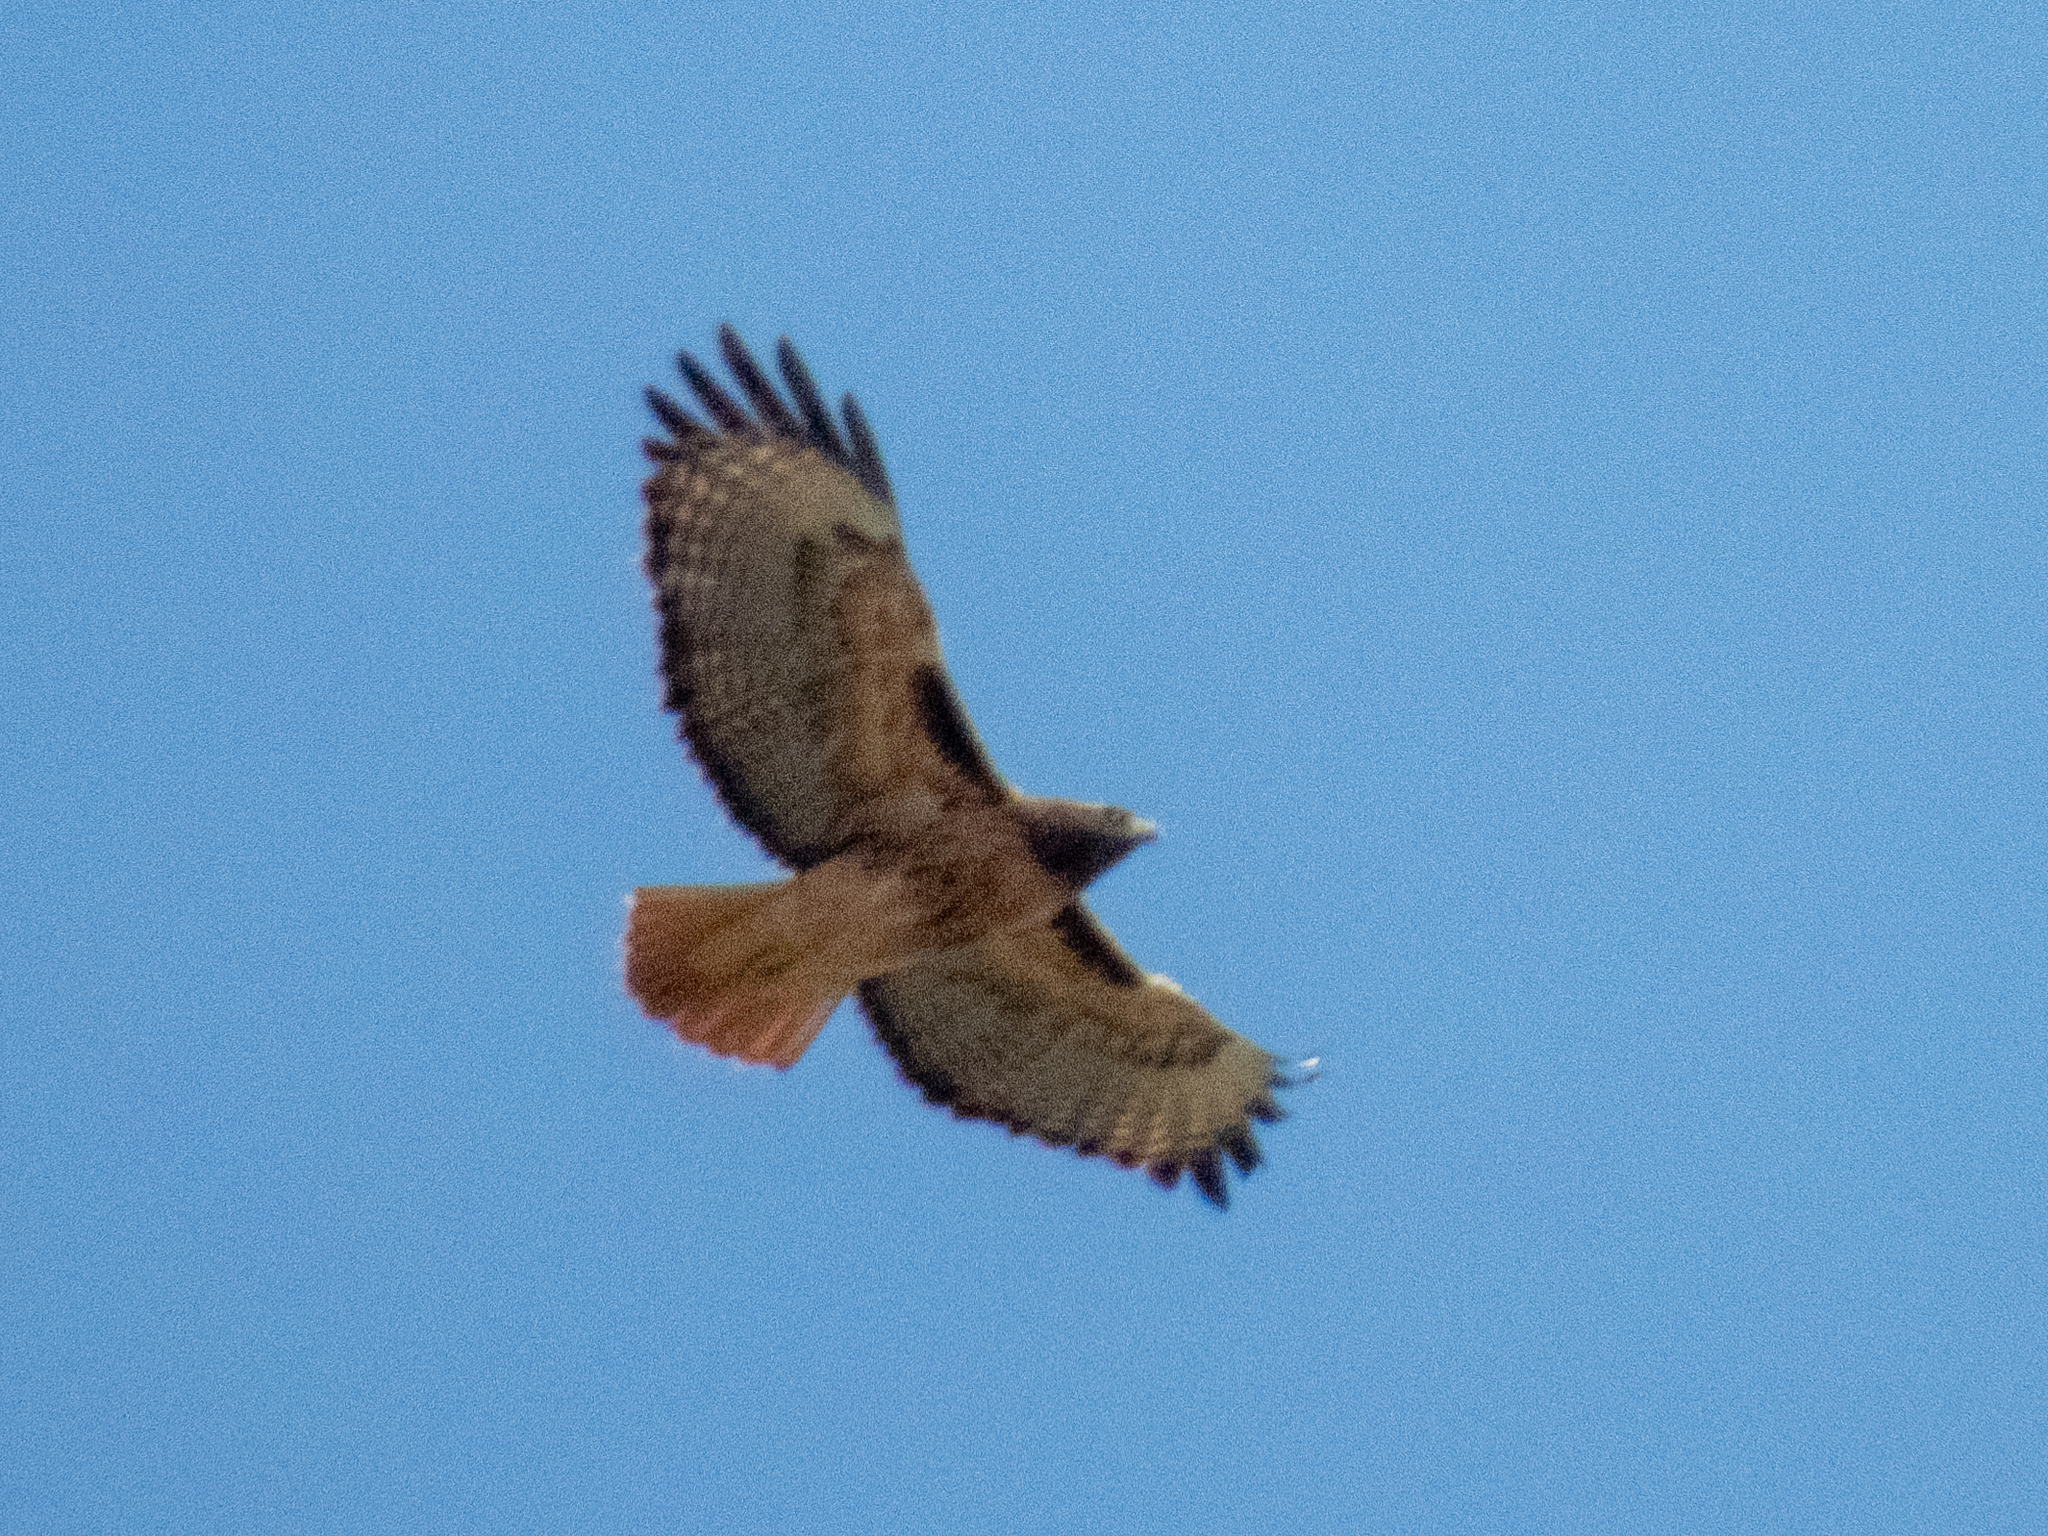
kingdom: Animalia
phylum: Chordata
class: Aves
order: Accipitriformes
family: Accipitridae
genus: Buteo
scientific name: Buteo jamaicensis
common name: Red-tailed hawk
